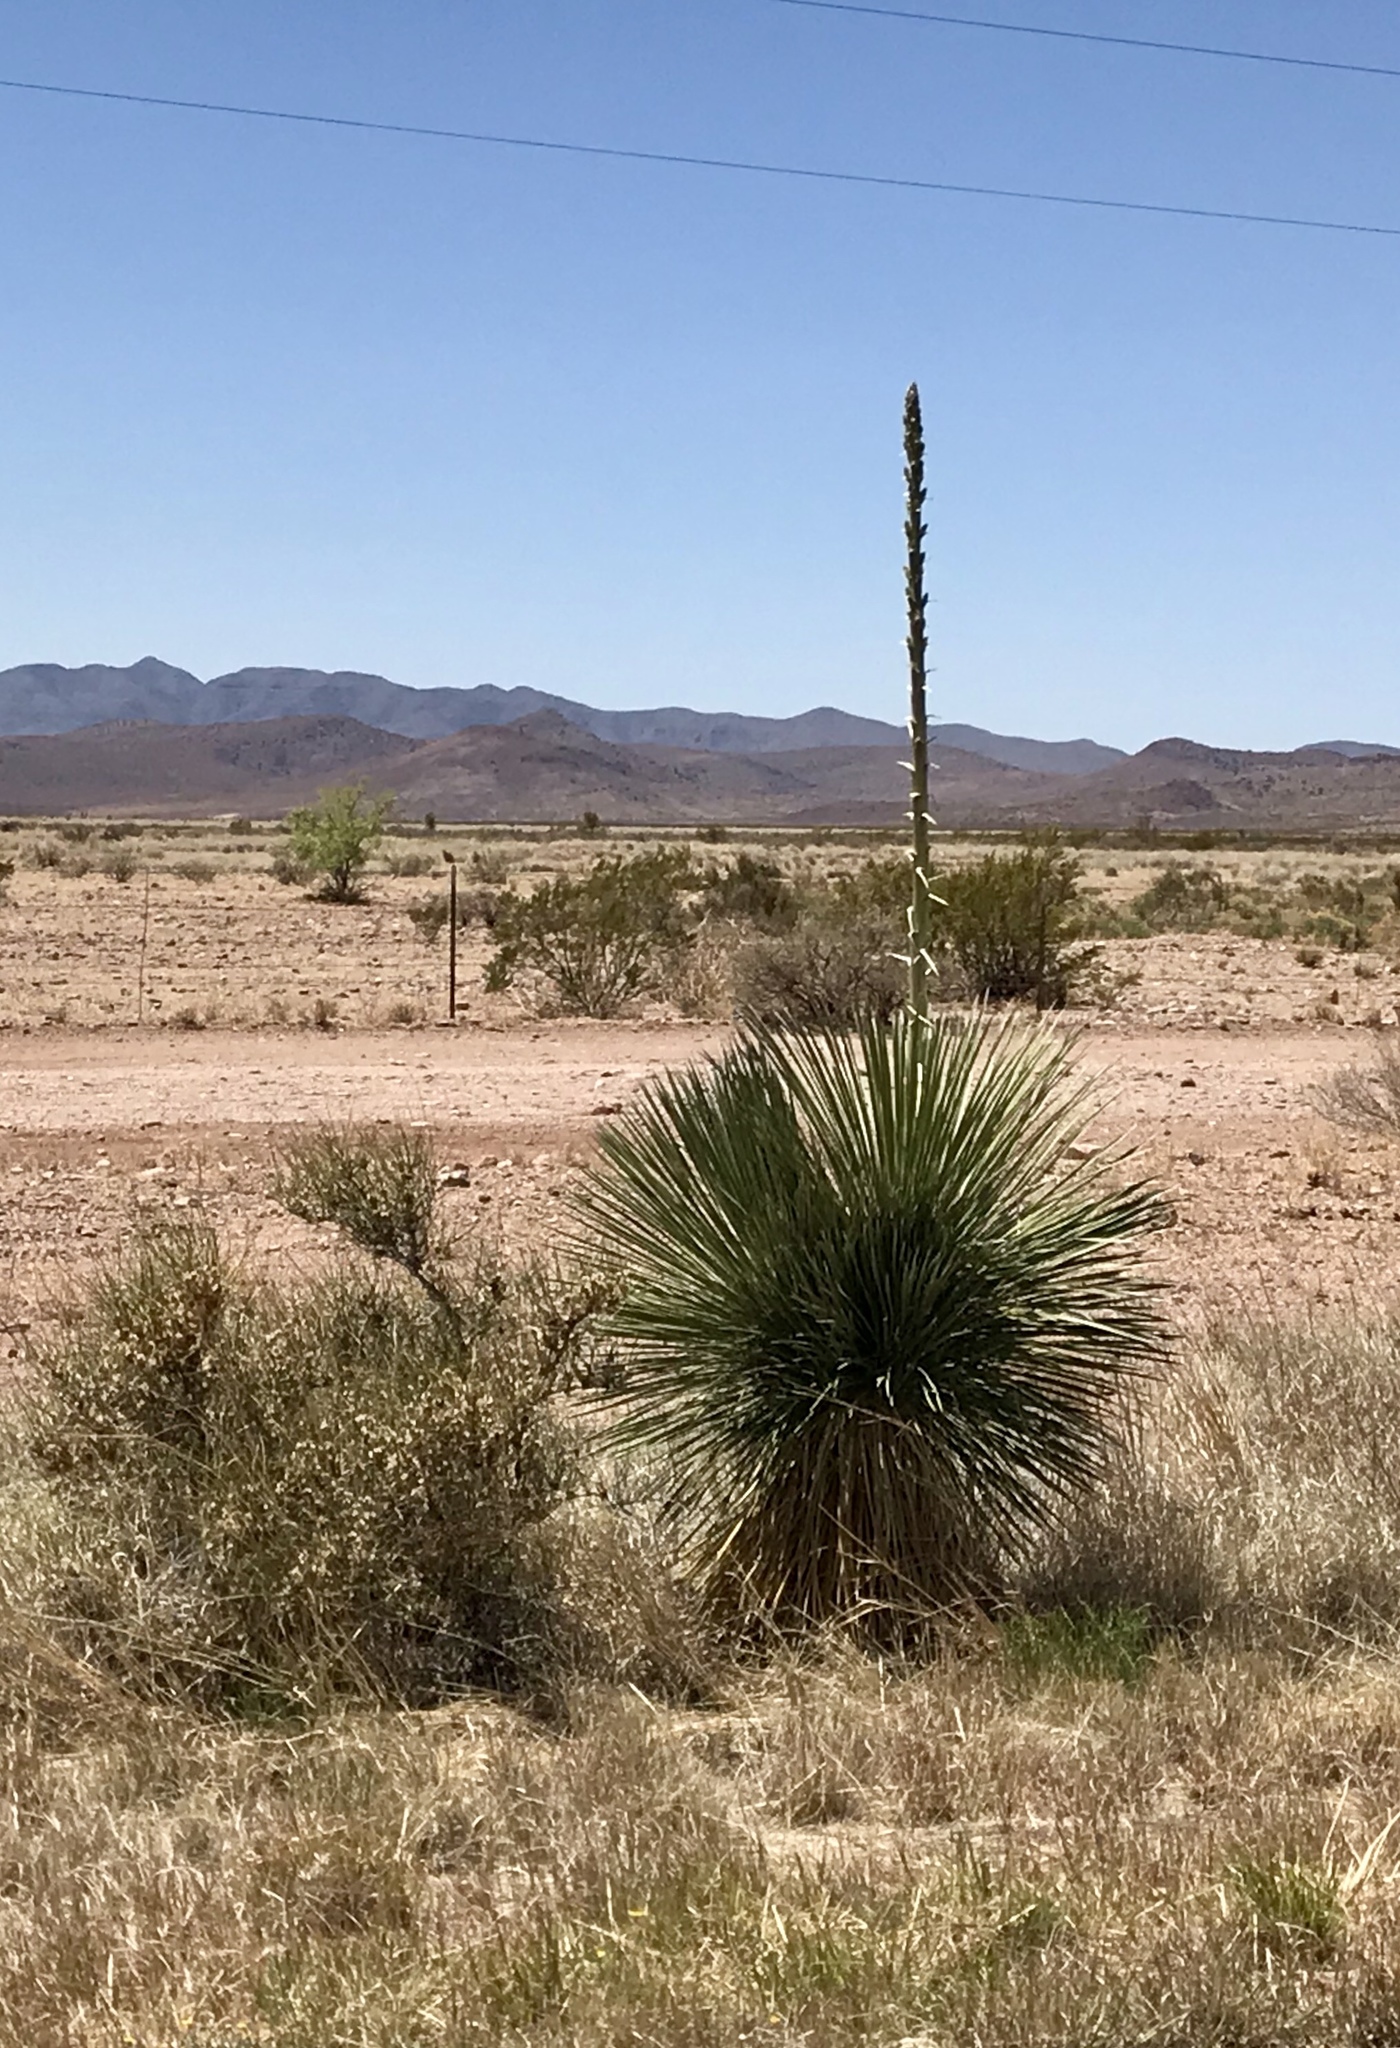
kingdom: Plantae
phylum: Tracheophyta
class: Liliopsida
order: Asparagales
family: Asparagaceae
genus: Yucca
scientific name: Yucca elata
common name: Palmella
